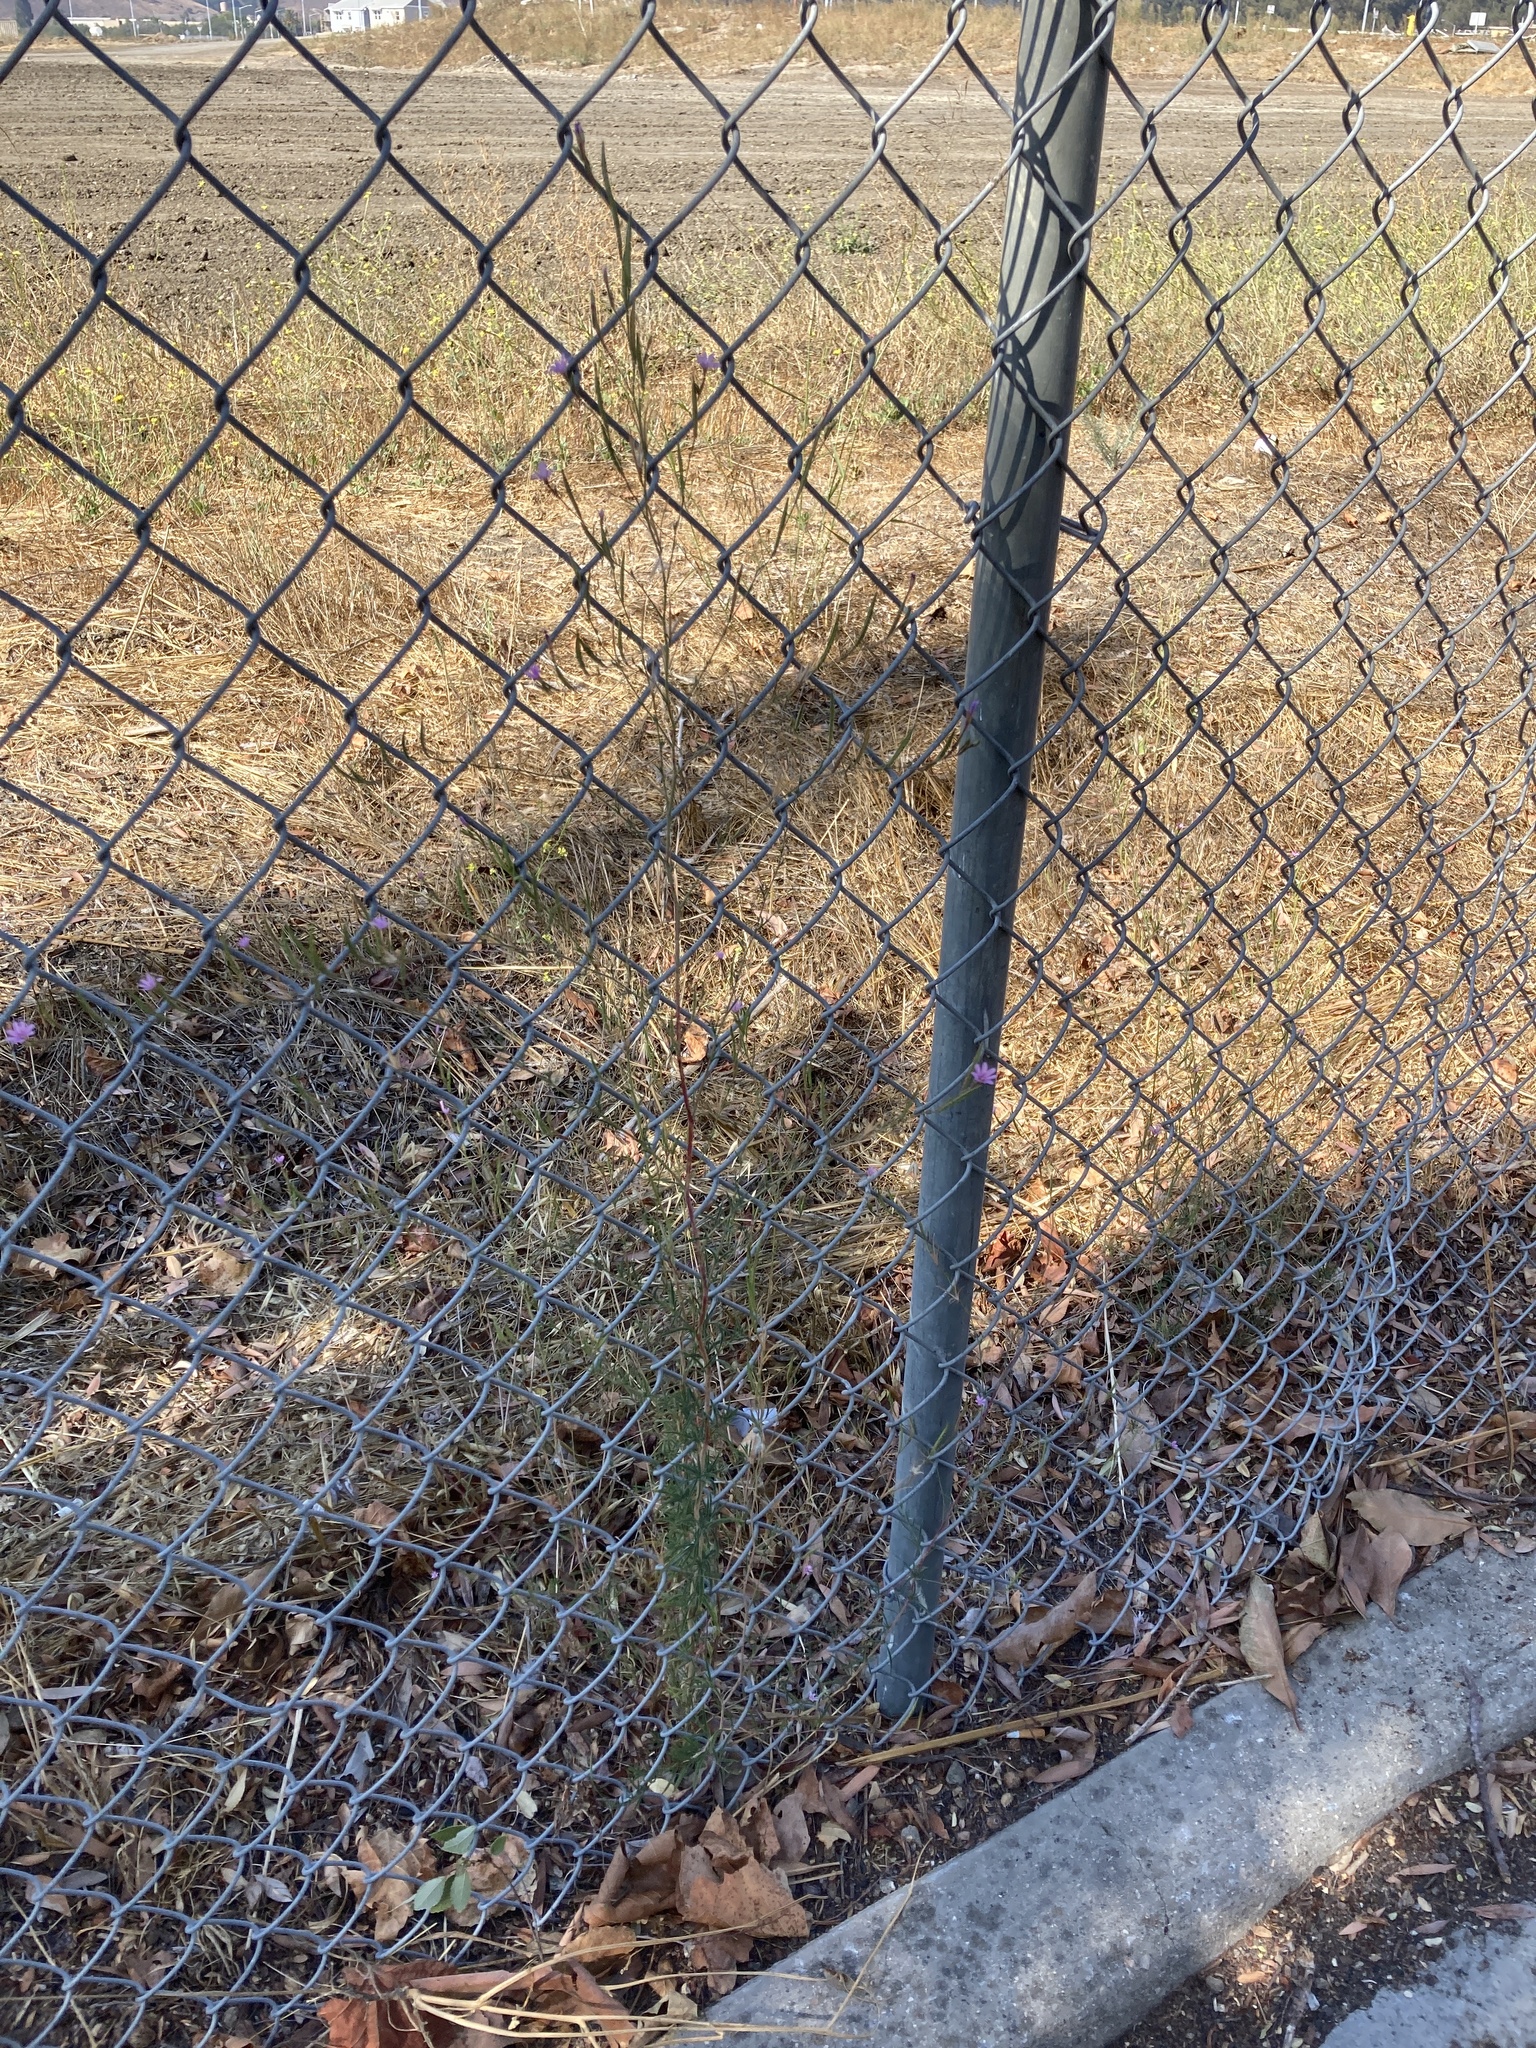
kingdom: Plantae
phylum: Tracheophyta
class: Magnoliopsida
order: Myrtales
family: Onagraceae
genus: Epilobium
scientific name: Epilobium brachycarpum
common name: Annual willowherb
